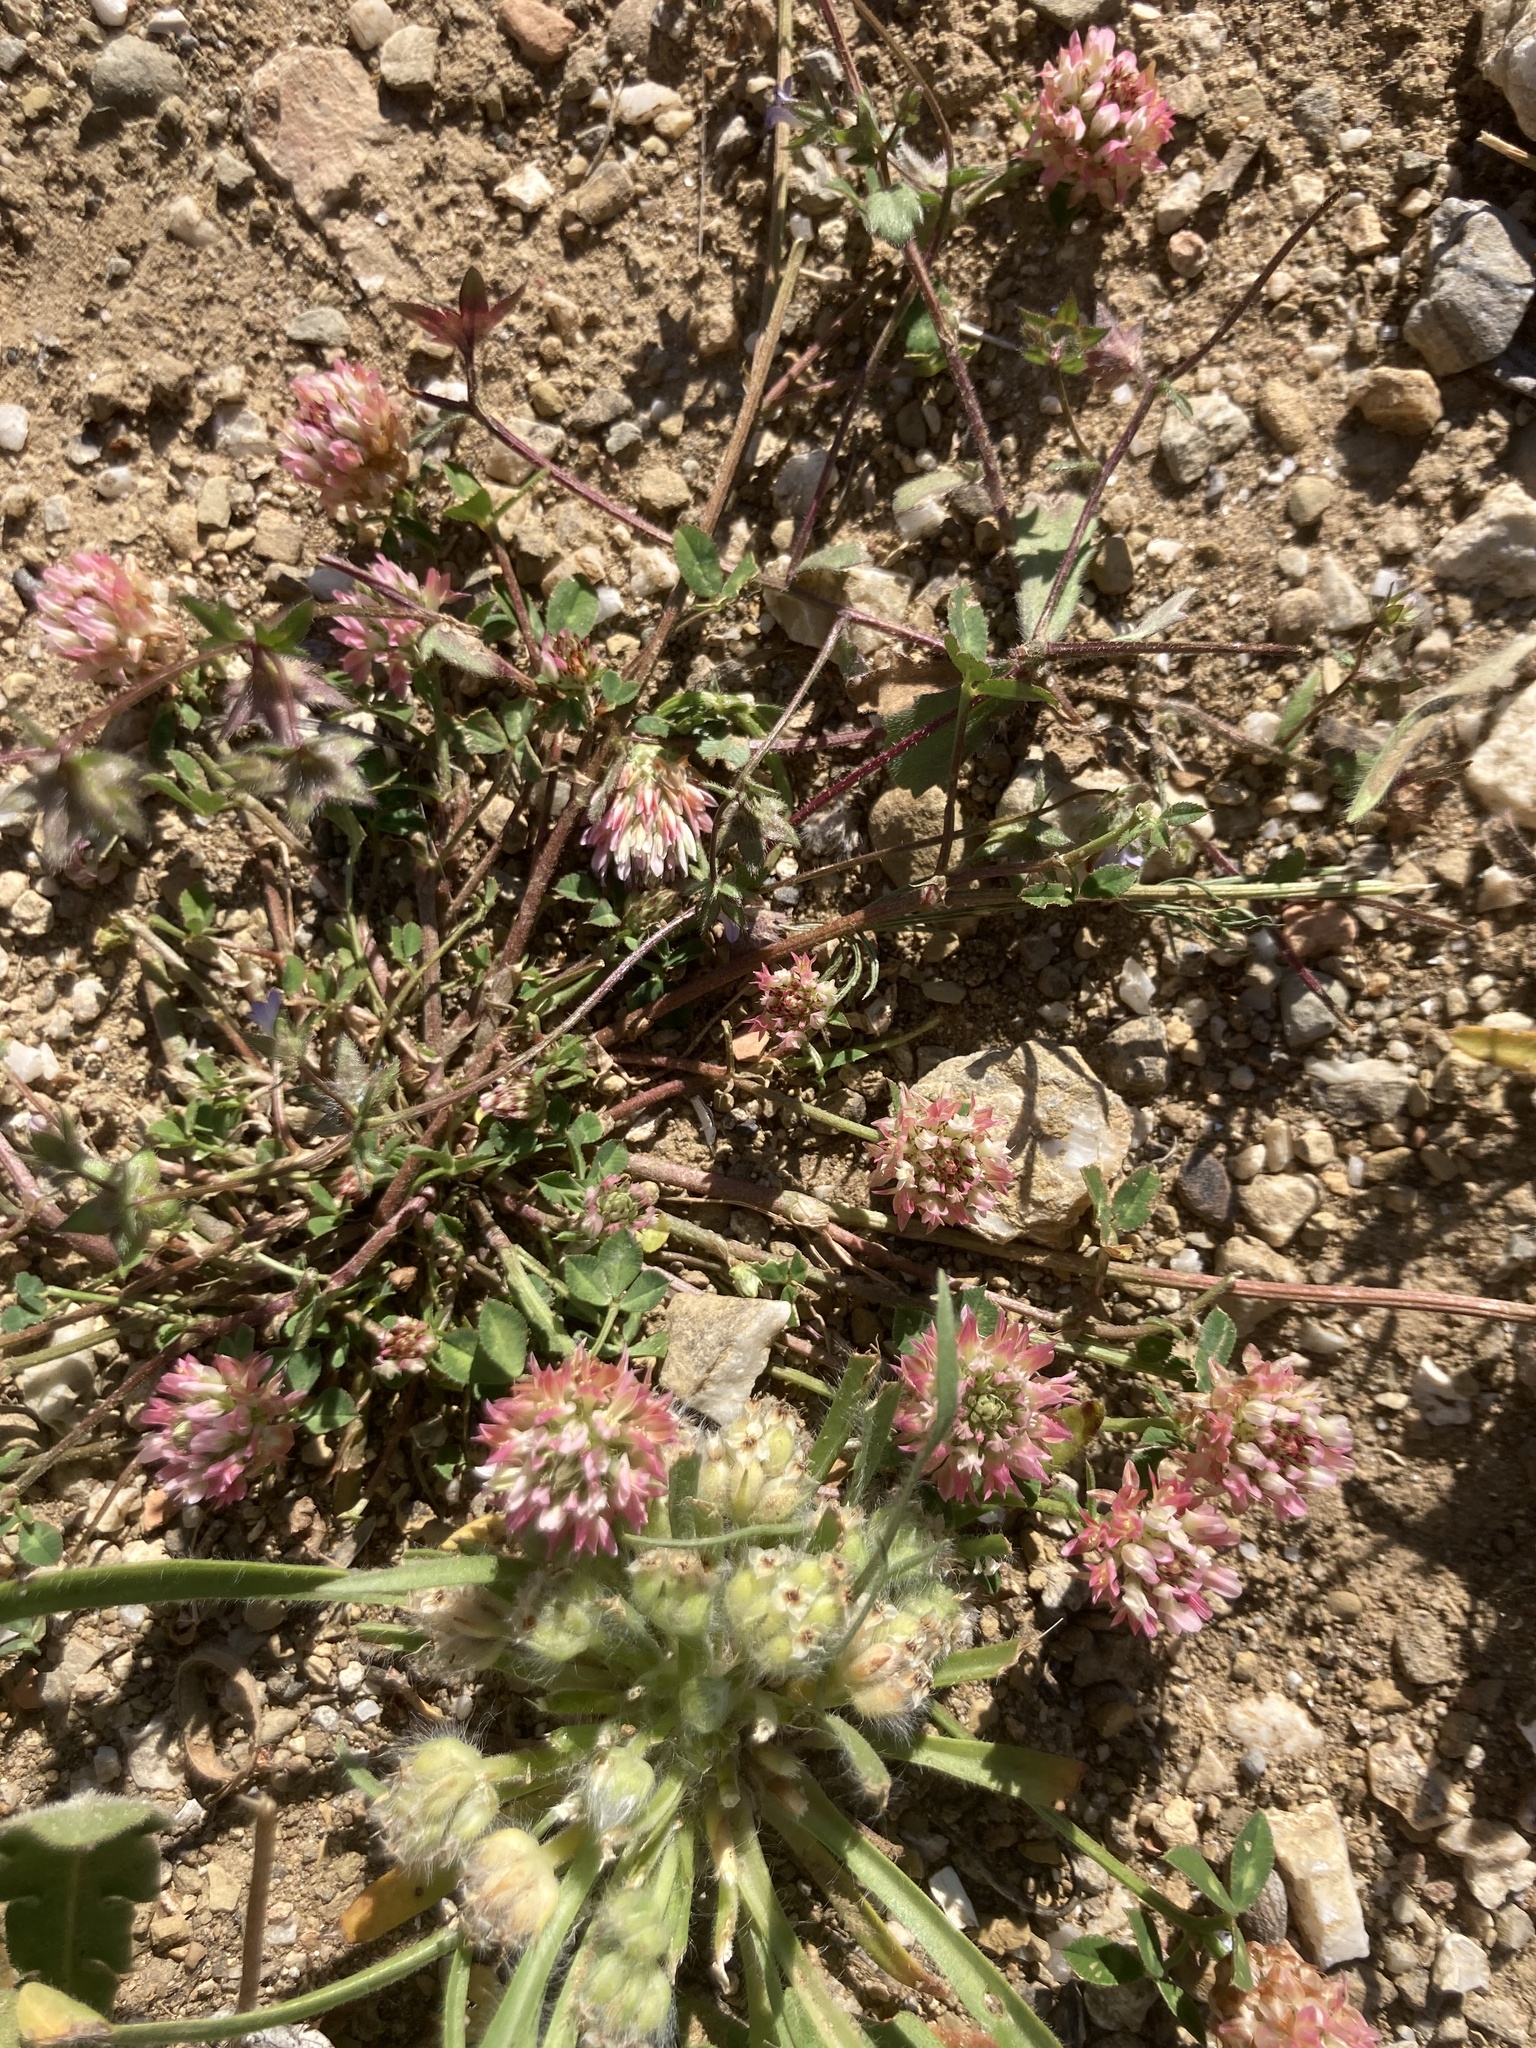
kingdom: Plantae
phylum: Tracheophyta
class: Magnoliopsida
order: Fabales
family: Fabaceae
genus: Trifolium
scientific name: Trifolium argutum
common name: Sharp-tooth clover
